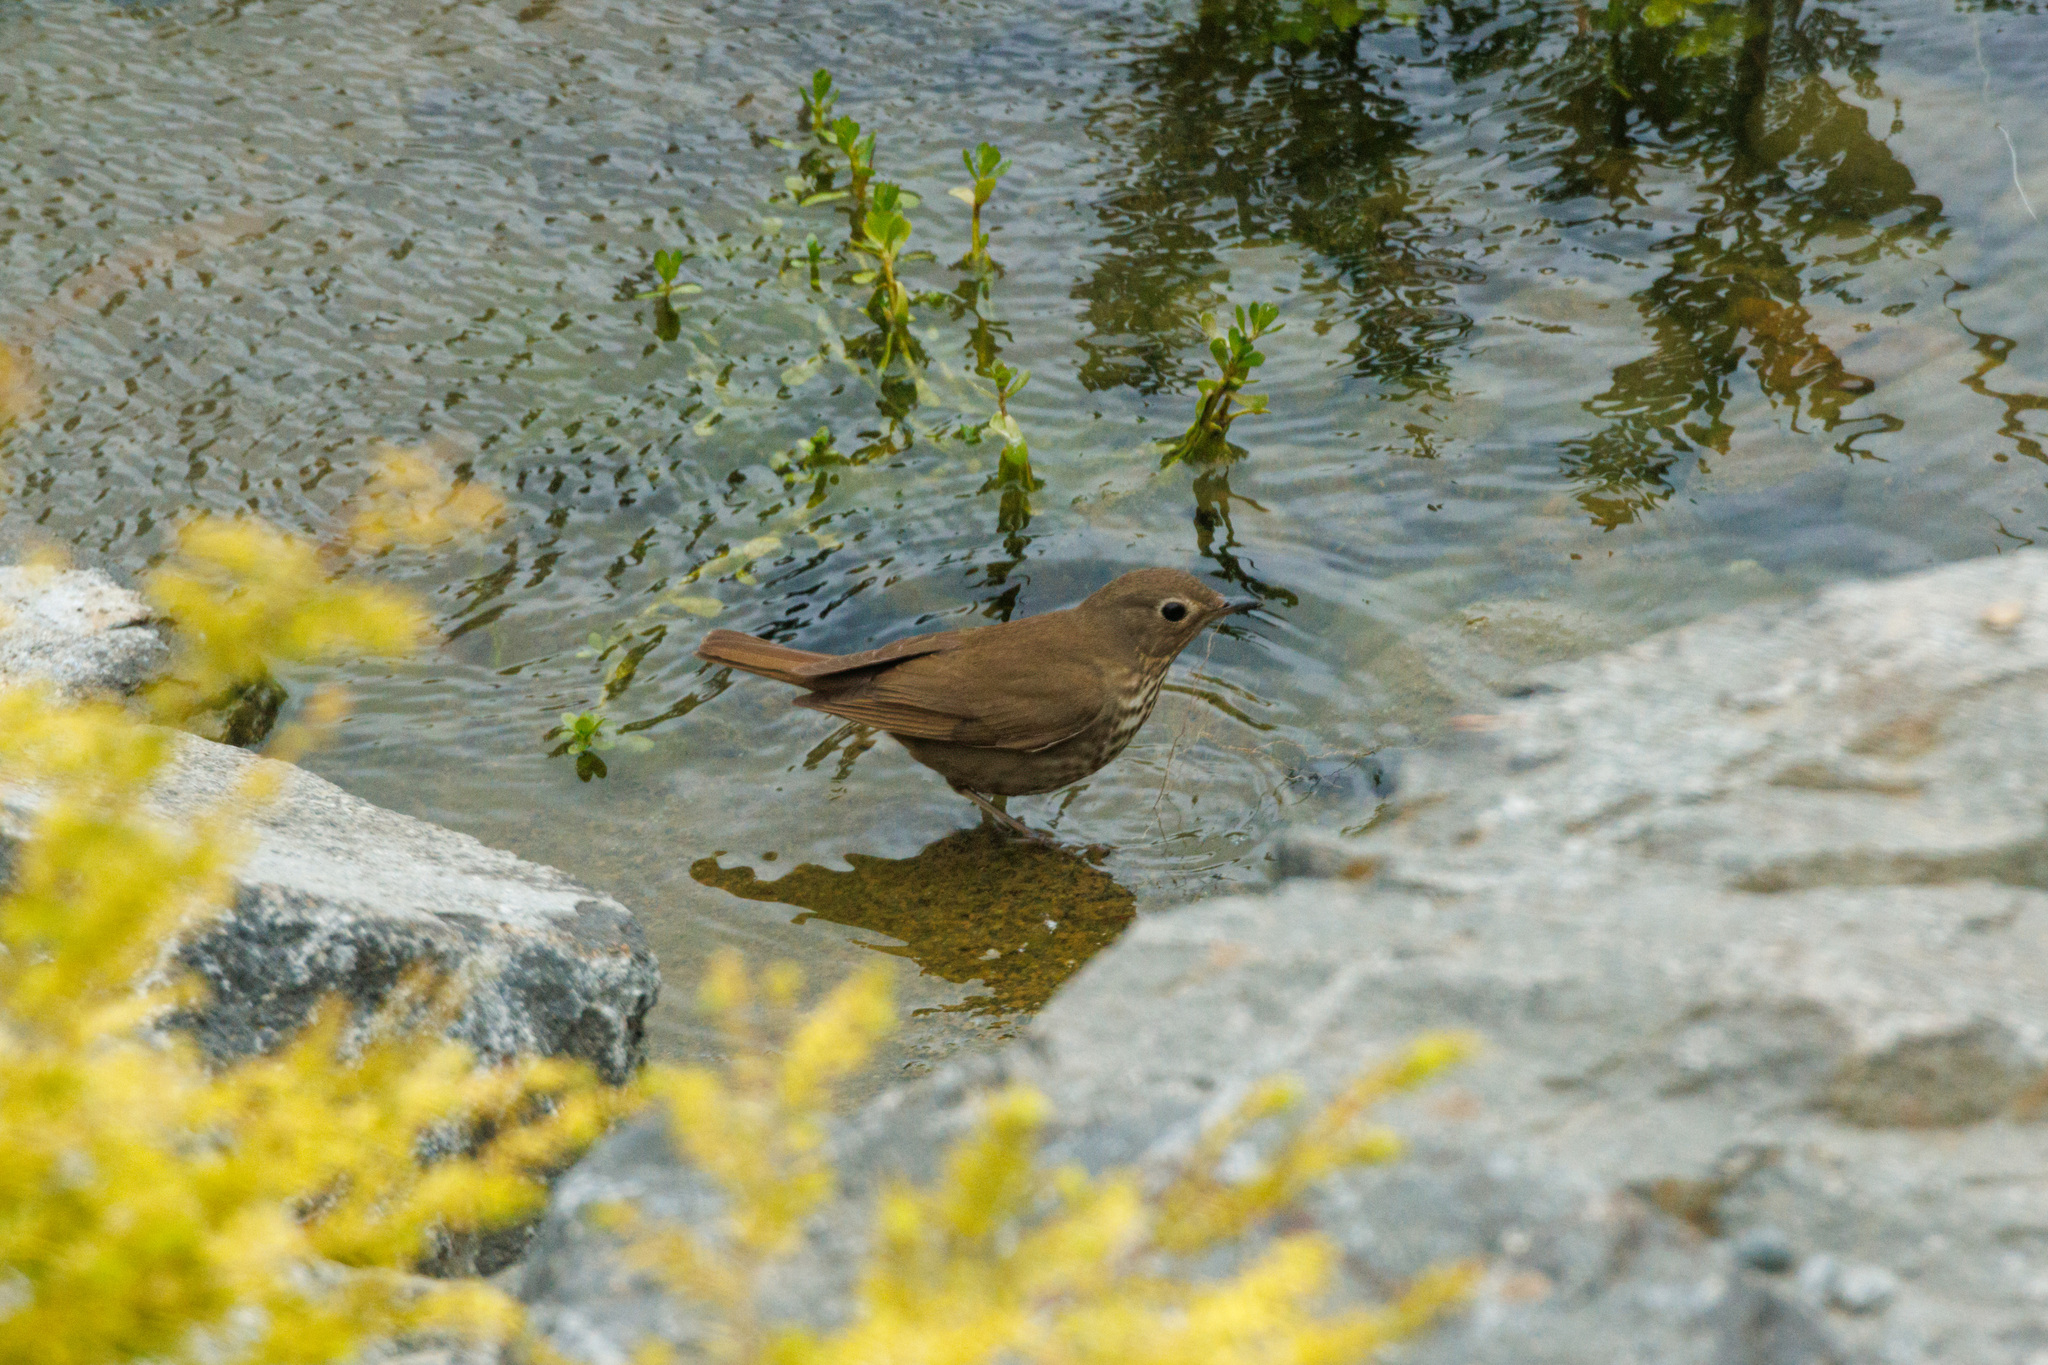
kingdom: Animalia
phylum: Chordata
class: Aves
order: Passeriformes
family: Turdidae
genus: Catharus
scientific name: Catharus ustulatus
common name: Swainson's thrush
